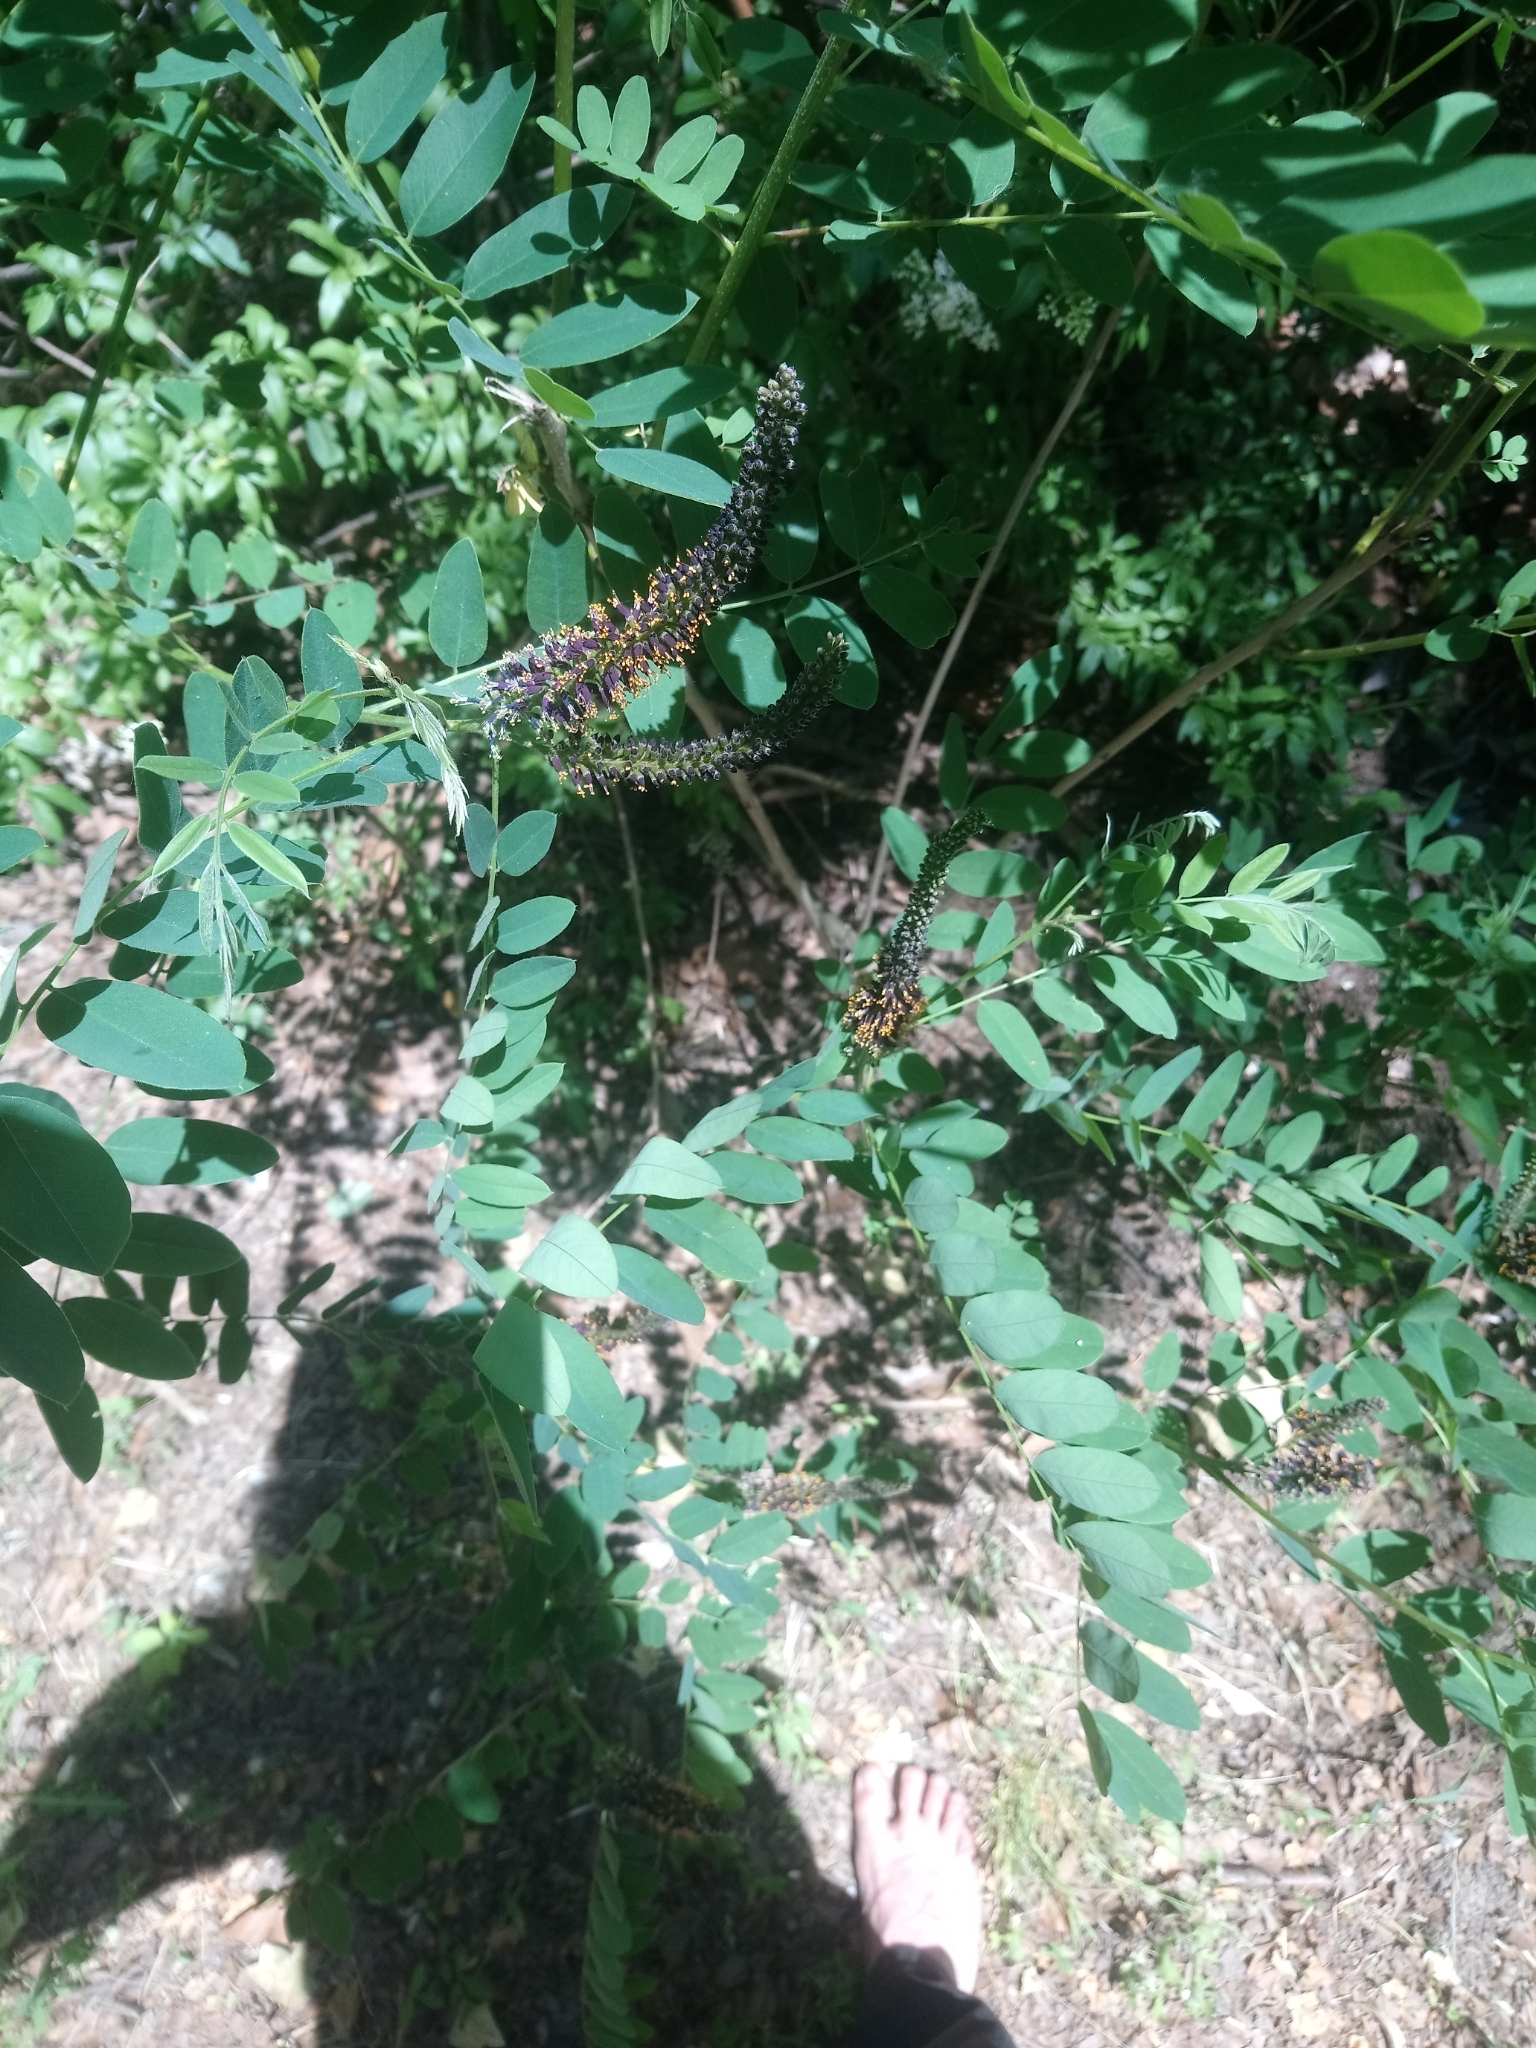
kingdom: Plantae
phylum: Tracheophyta
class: Magnoliopsida
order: Fabales
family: Fabaceae
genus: Amorpha
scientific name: Amorpha fruticosa
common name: False indigo
